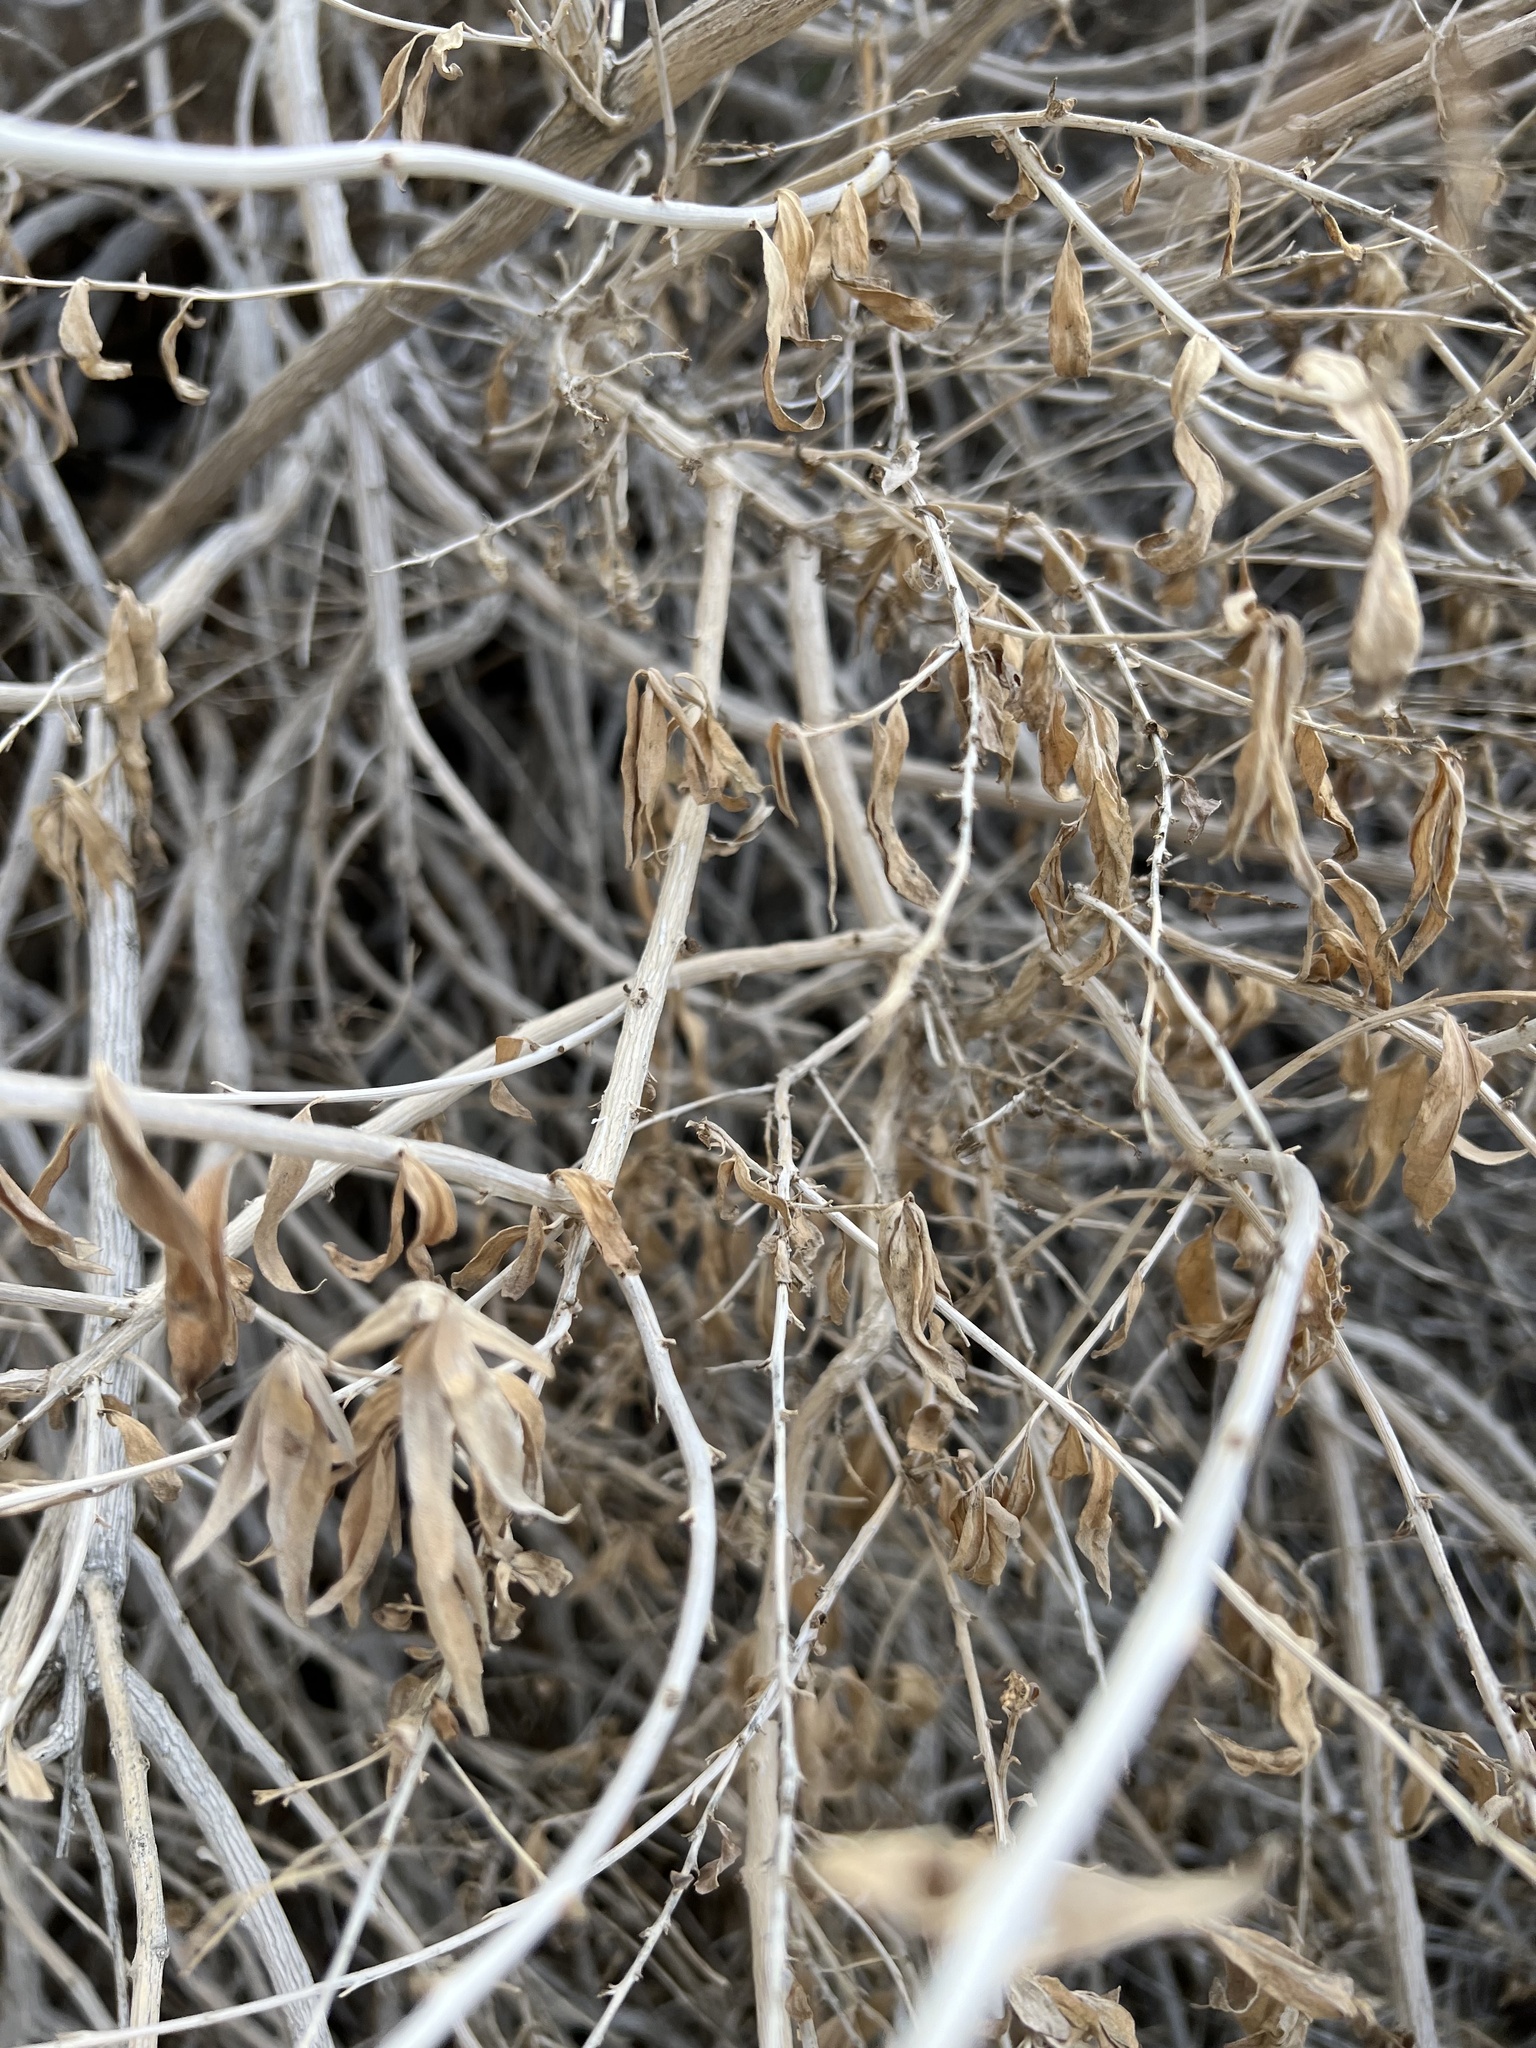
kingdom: Plantae
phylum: Tracheophyta
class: Magnoliopsida
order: Asterales
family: Asteraceae
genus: Brickellia
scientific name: Brickellia longifolia
